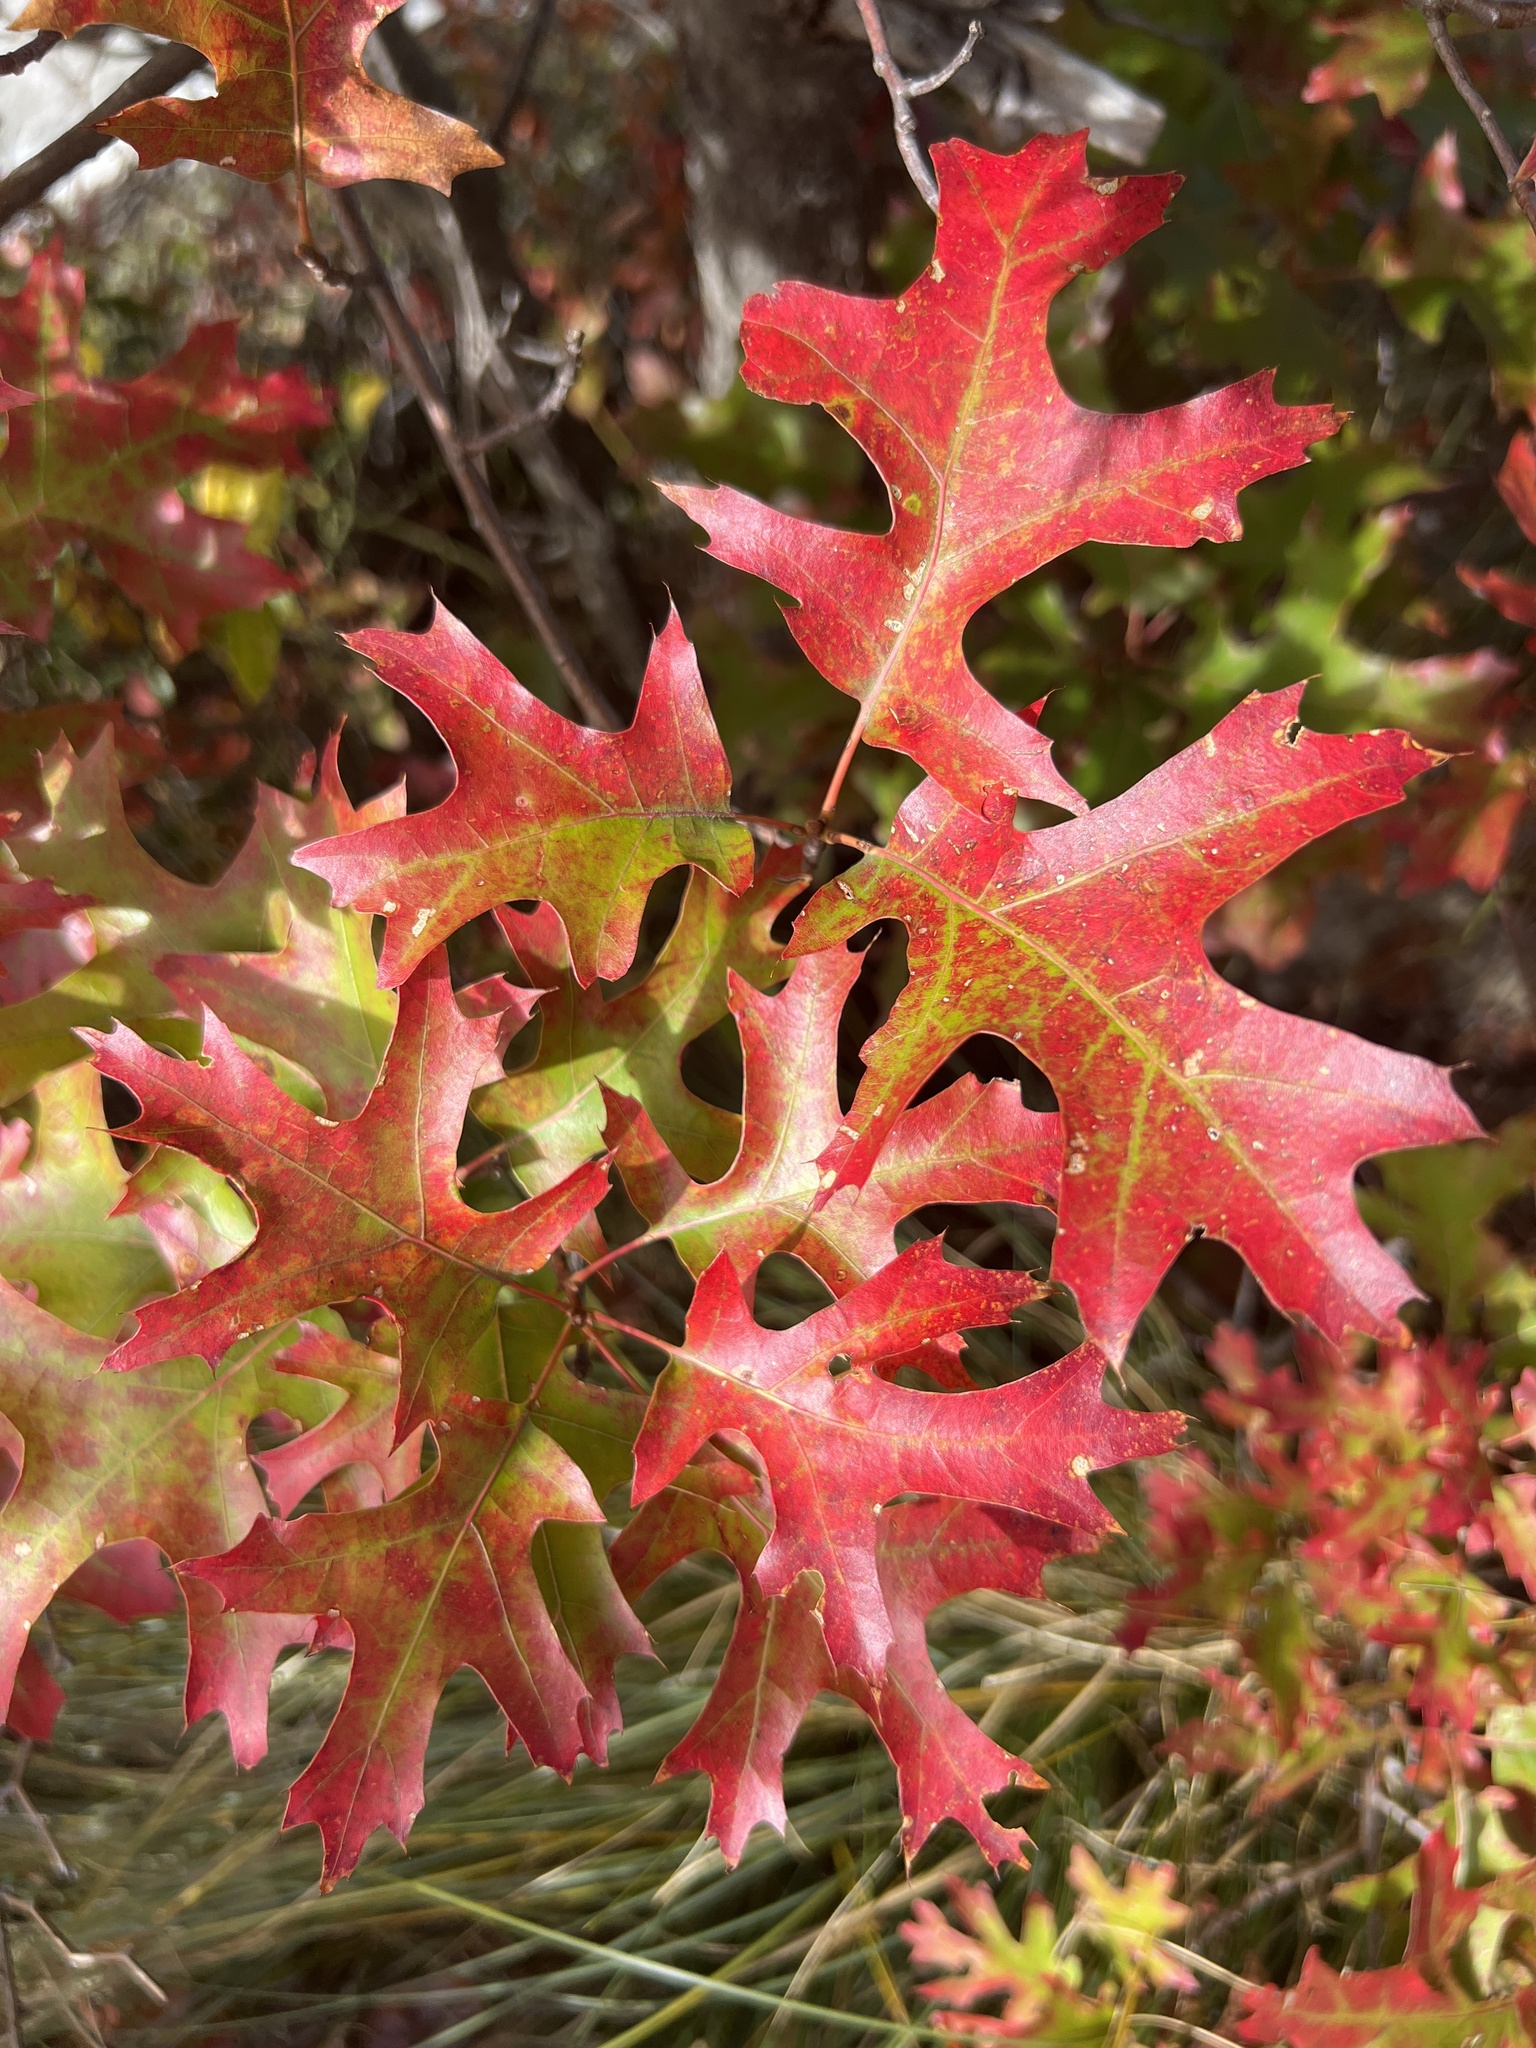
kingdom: Plantae
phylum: Tracheophyta
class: Magnoliopsida
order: Fagales
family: Fagaceae
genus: Quercus
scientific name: Quercus coccinea
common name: Scarlet oak
